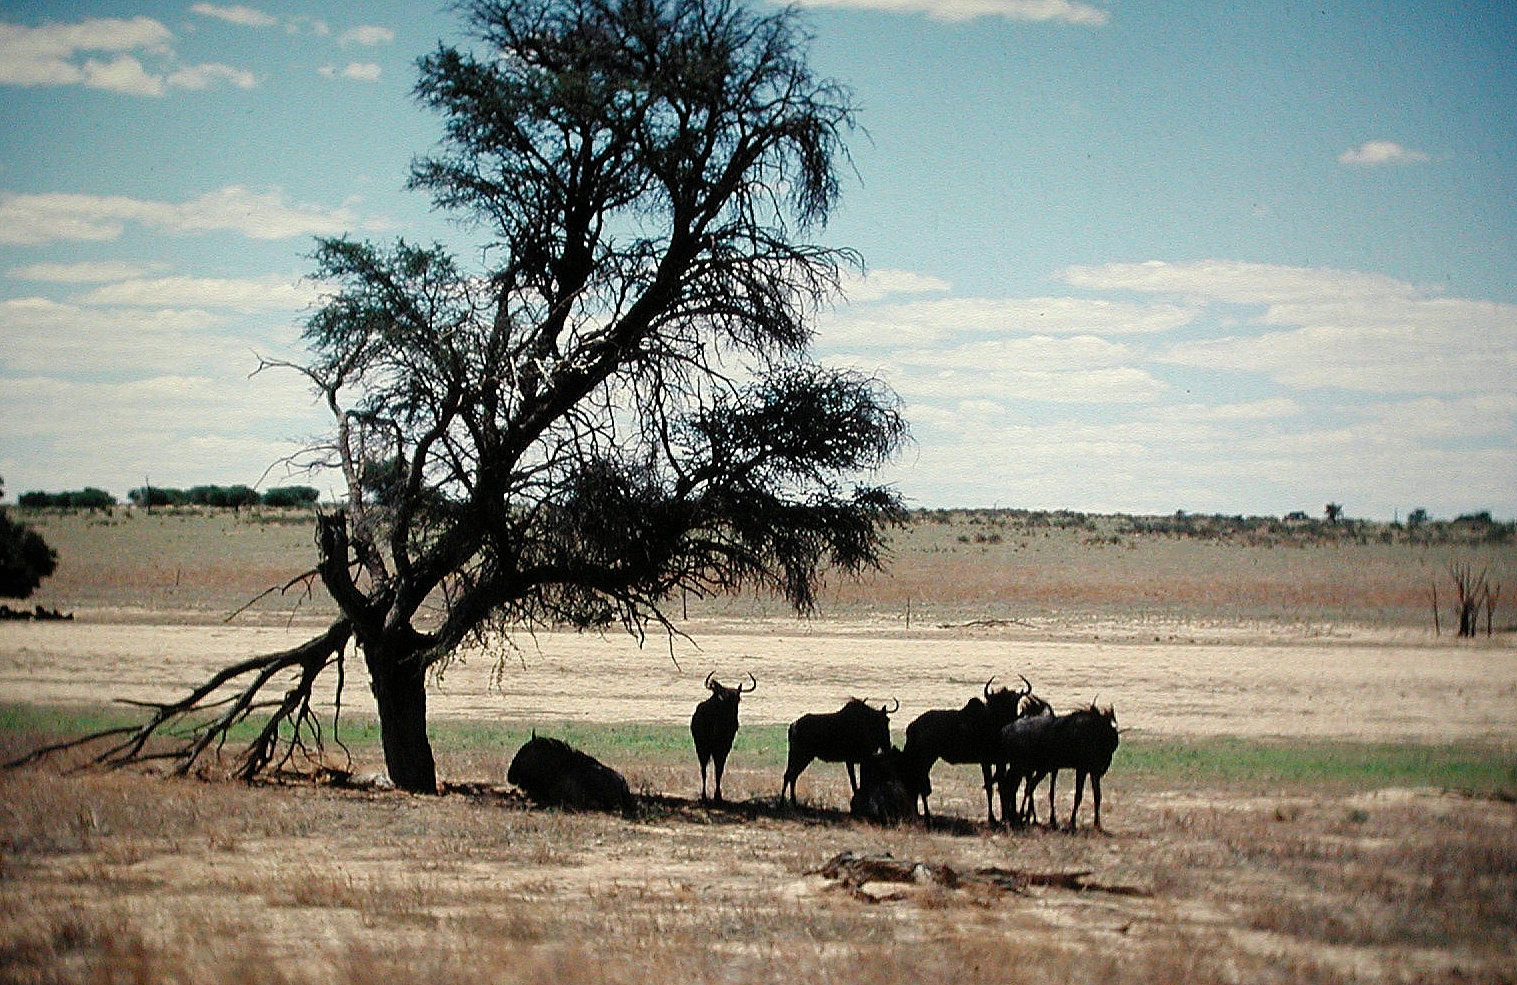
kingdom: Animalia
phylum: Chordata
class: Mammalia
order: Artiodactyla
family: Bovidae
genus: Connochaetes
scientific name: Connochaetes taurinus
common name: Blue wildebeest
